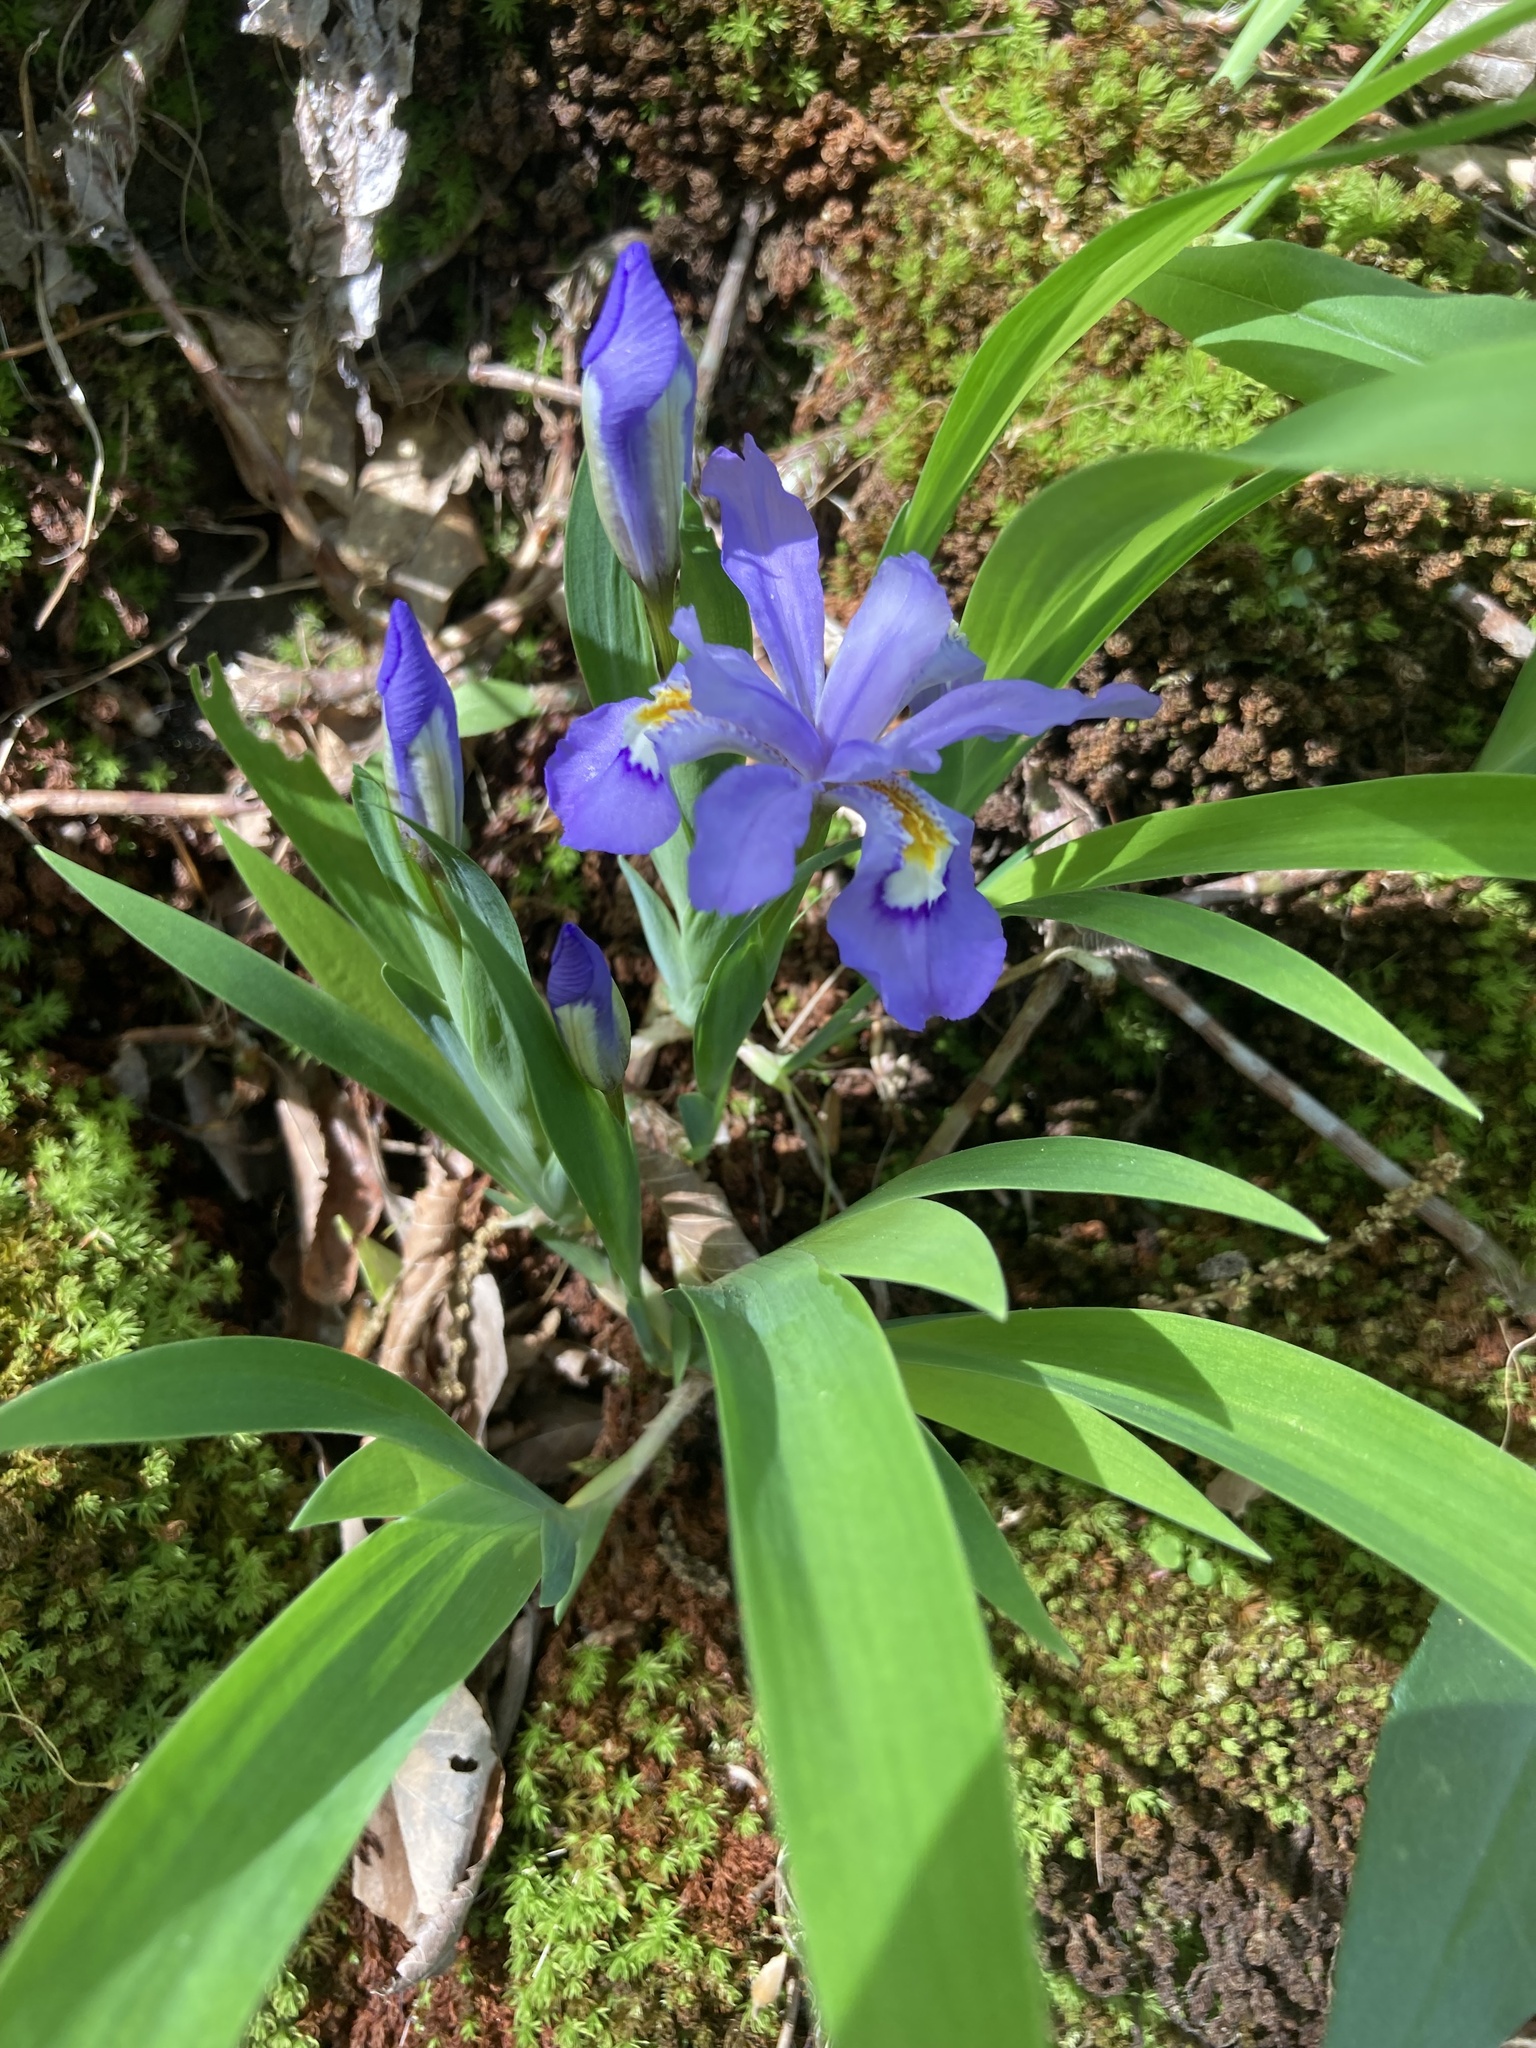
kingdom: Plantae
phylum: Tracheophyta
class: Liliopsida
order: Asparagales
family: Iridaceae
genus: Iris
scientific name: Iris cristata
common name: Crested iris
